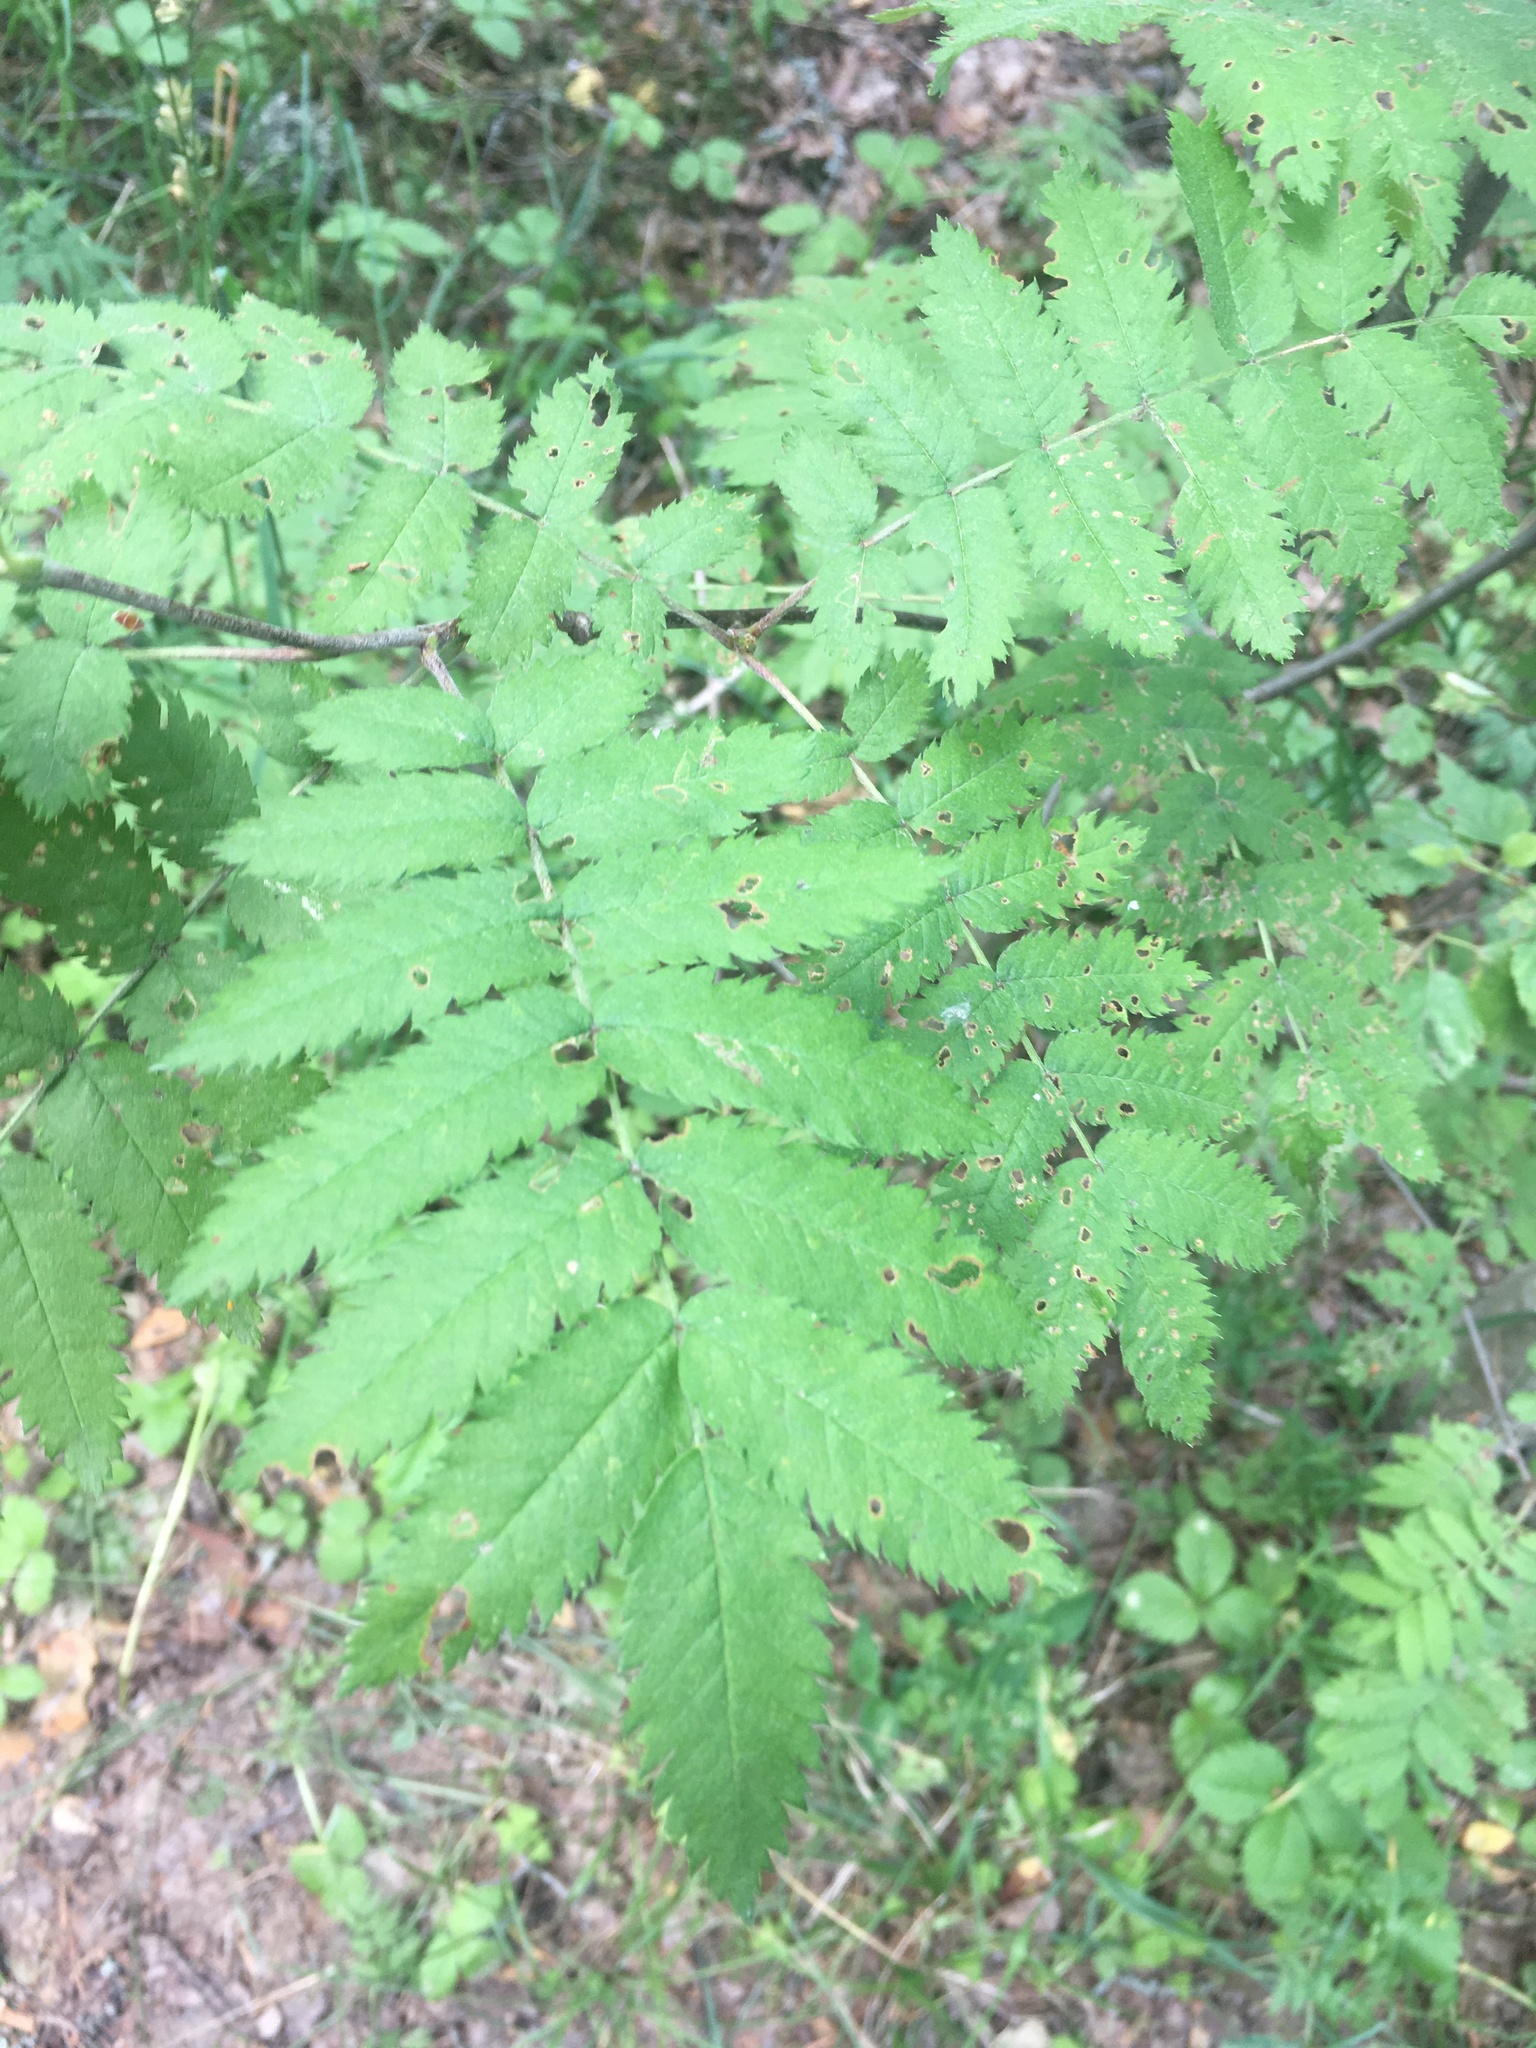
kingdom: Plantae
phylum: Tracheophyta
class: Magnoliopsida
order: Rosales
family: Rosaceae
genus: Sorbus
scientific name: Sorbus aucuparia
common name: Rowan
